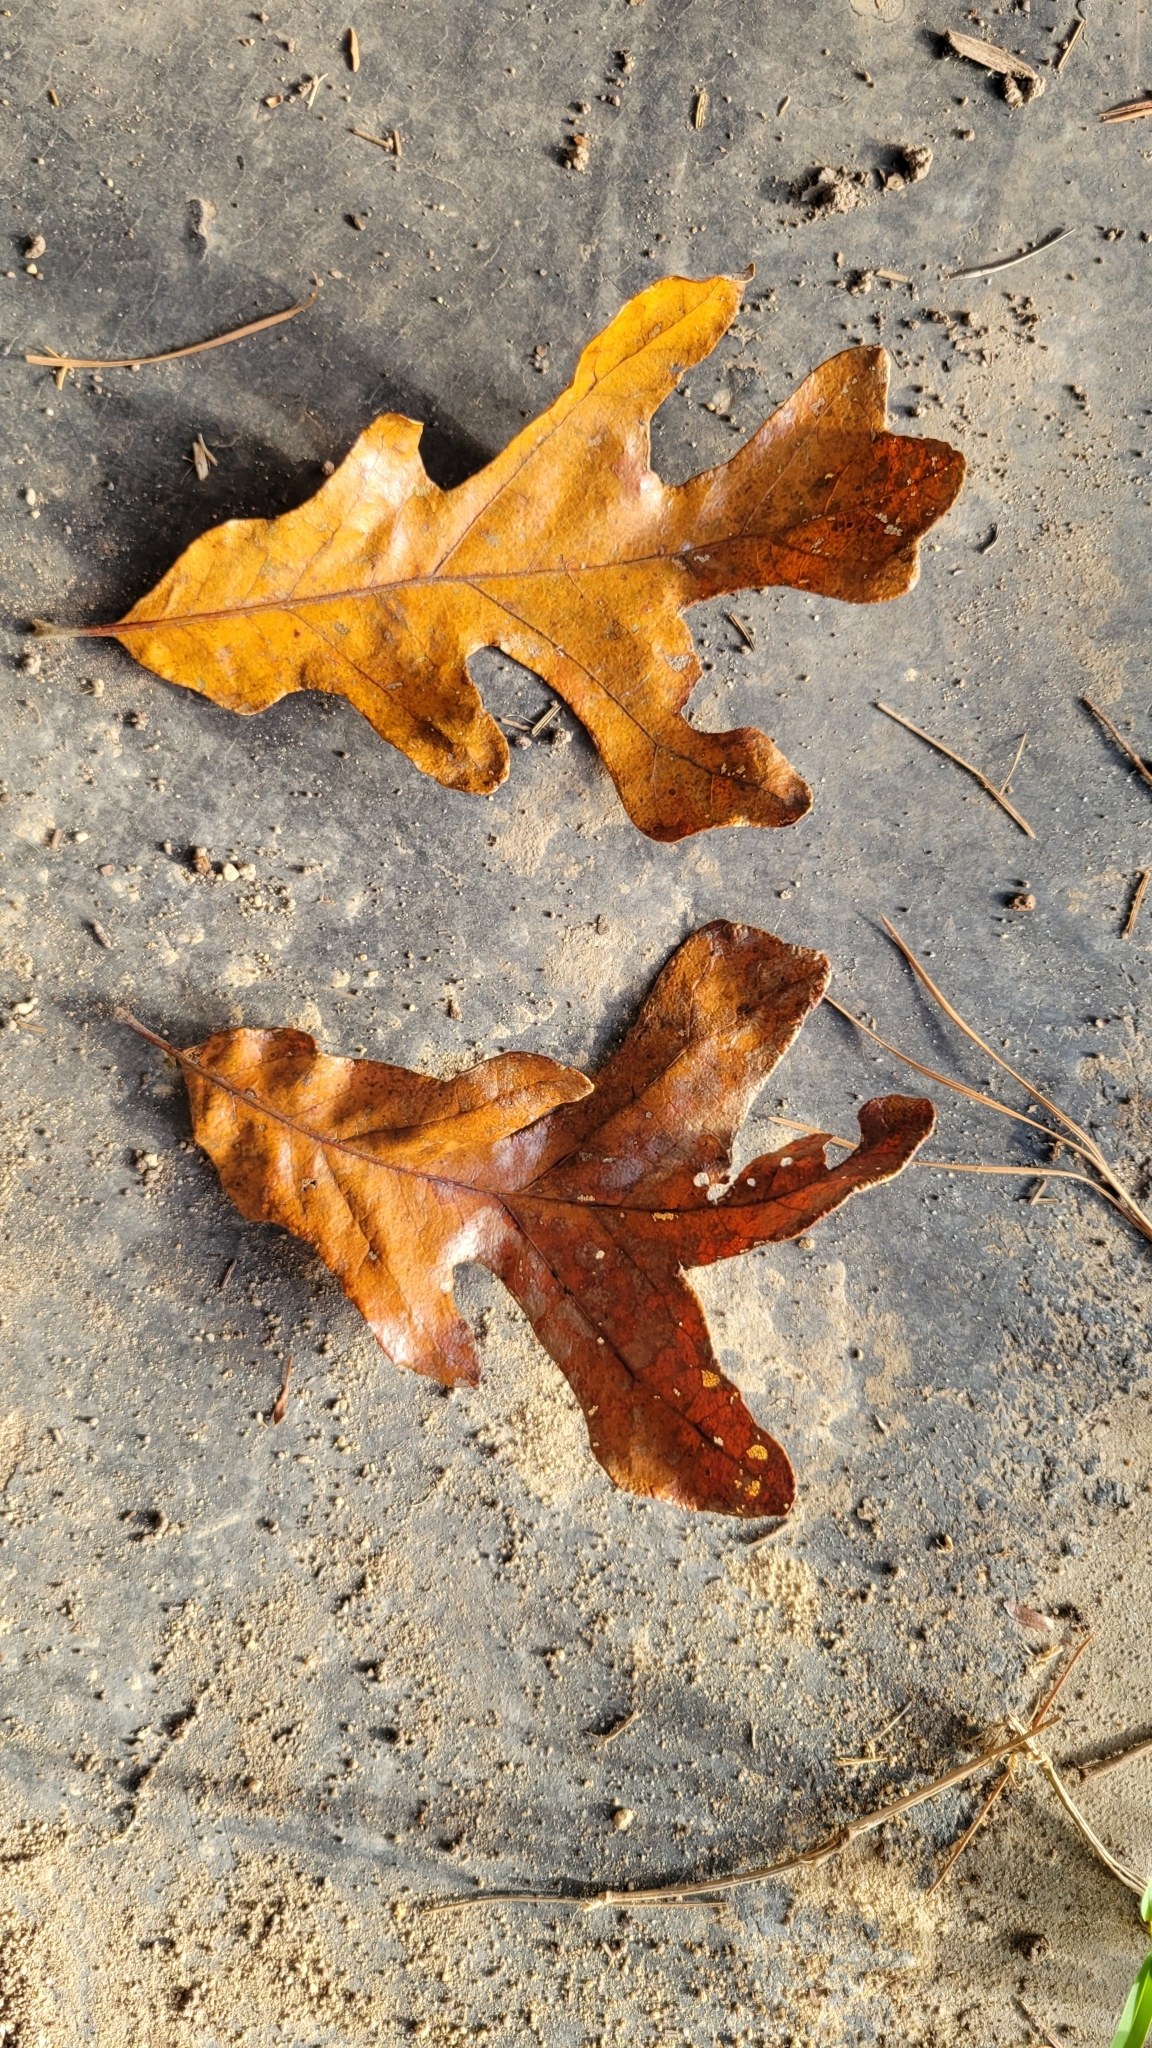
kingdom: Plantae
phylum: Tracheophyta
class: Magnoliopsida
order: Fagales
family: Fagaceae
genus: Quercus
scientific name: Quercus stellata
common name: Post oak
